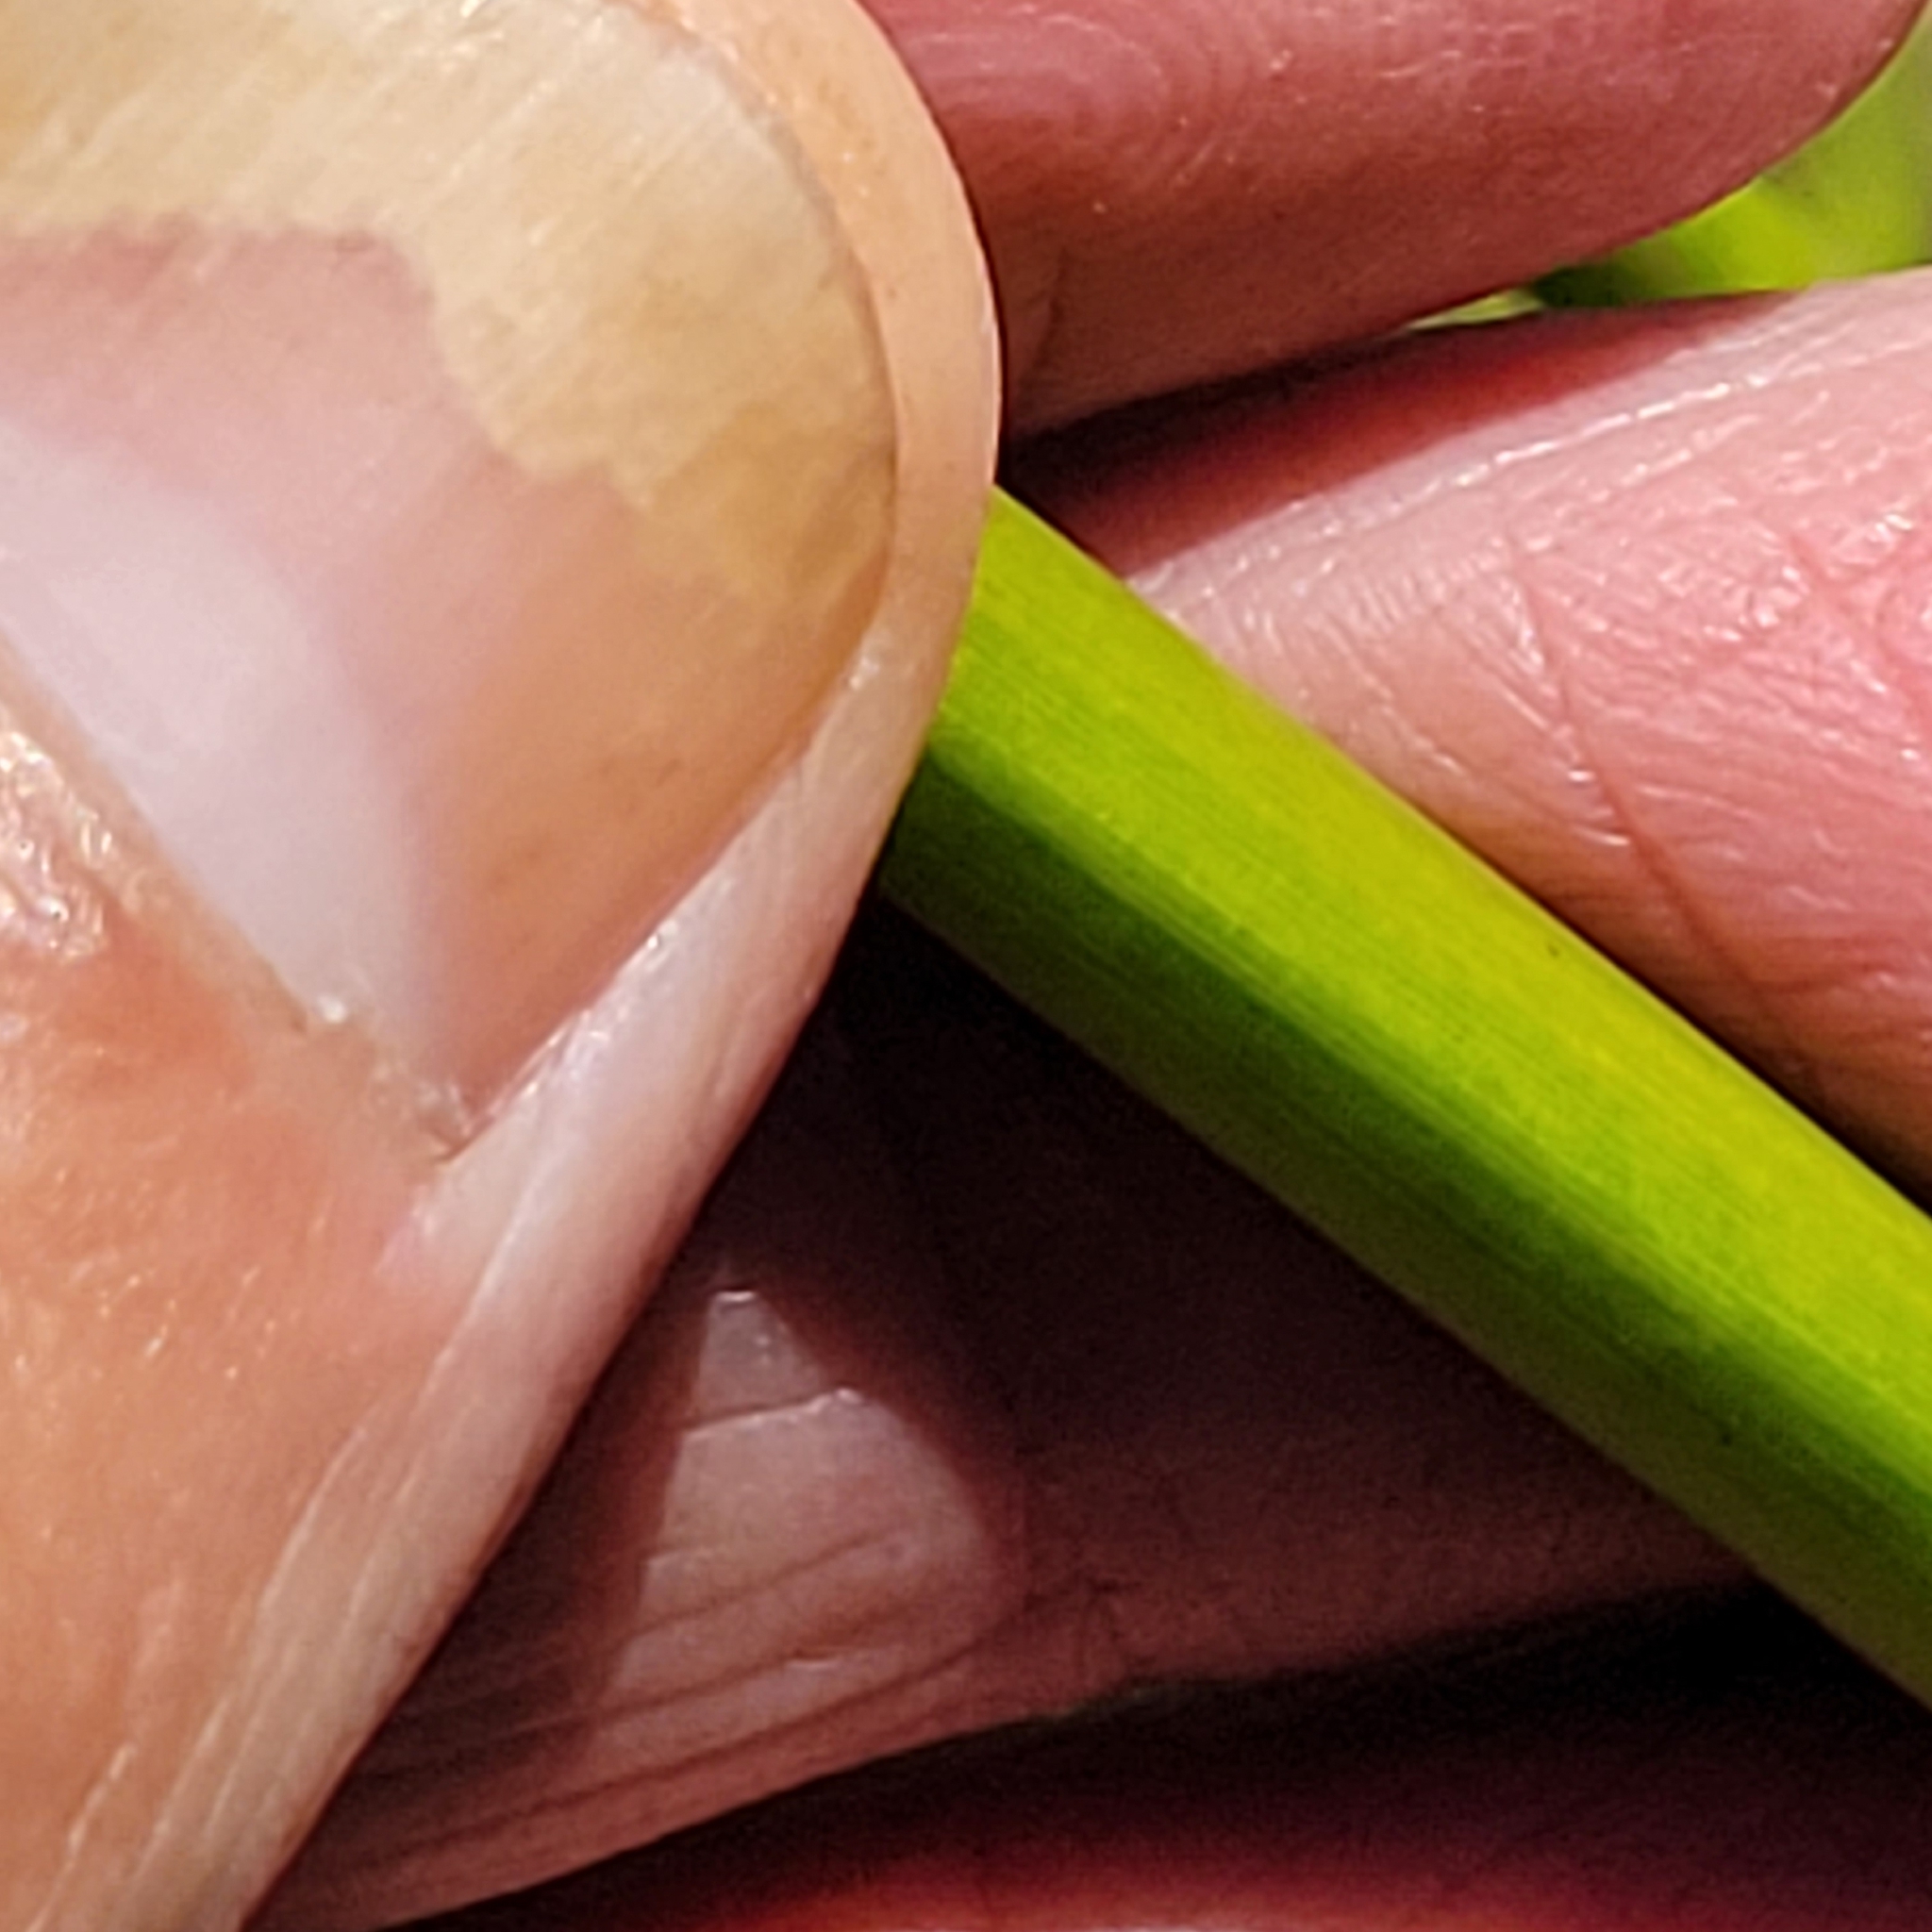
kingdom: Plantae
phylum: Tracheophyta
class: Liliopsida
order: Poales
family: Cyperaceae
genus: Schoenoplectus
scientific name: Schoenoplectus californicus
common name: California bulrush
